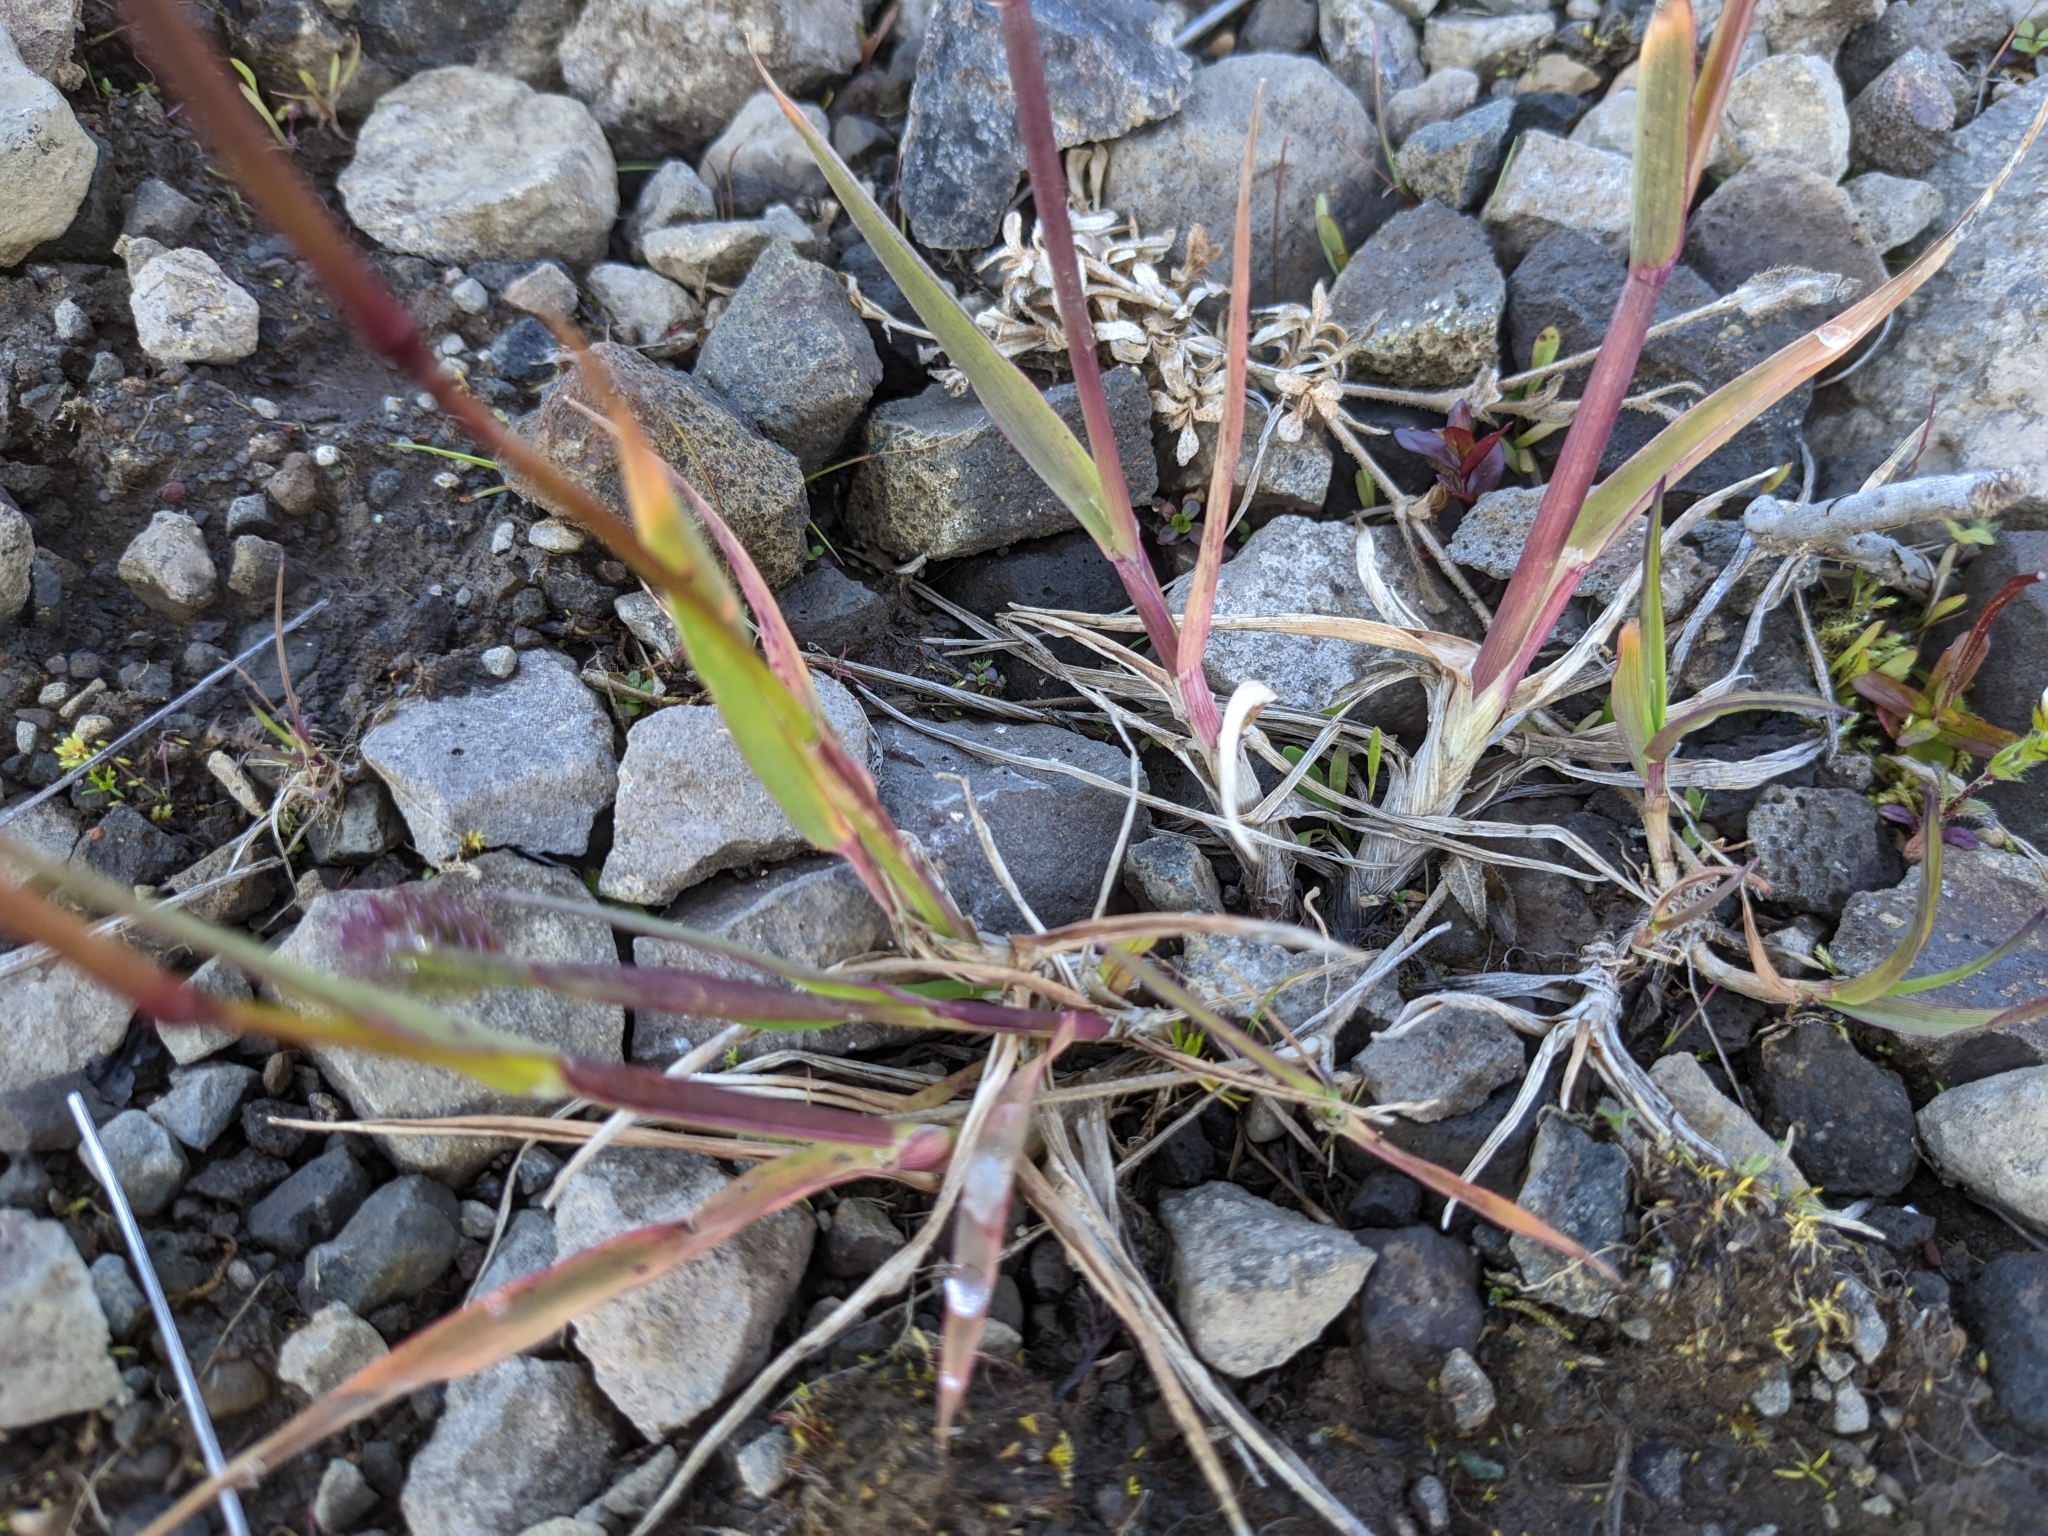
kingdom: Plantae
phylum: Tracheophyta
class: Liliopsida
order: Poales
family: Poaceae
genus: Phleum
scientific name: Phleum alpinum
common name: Alpine cat's-tail
